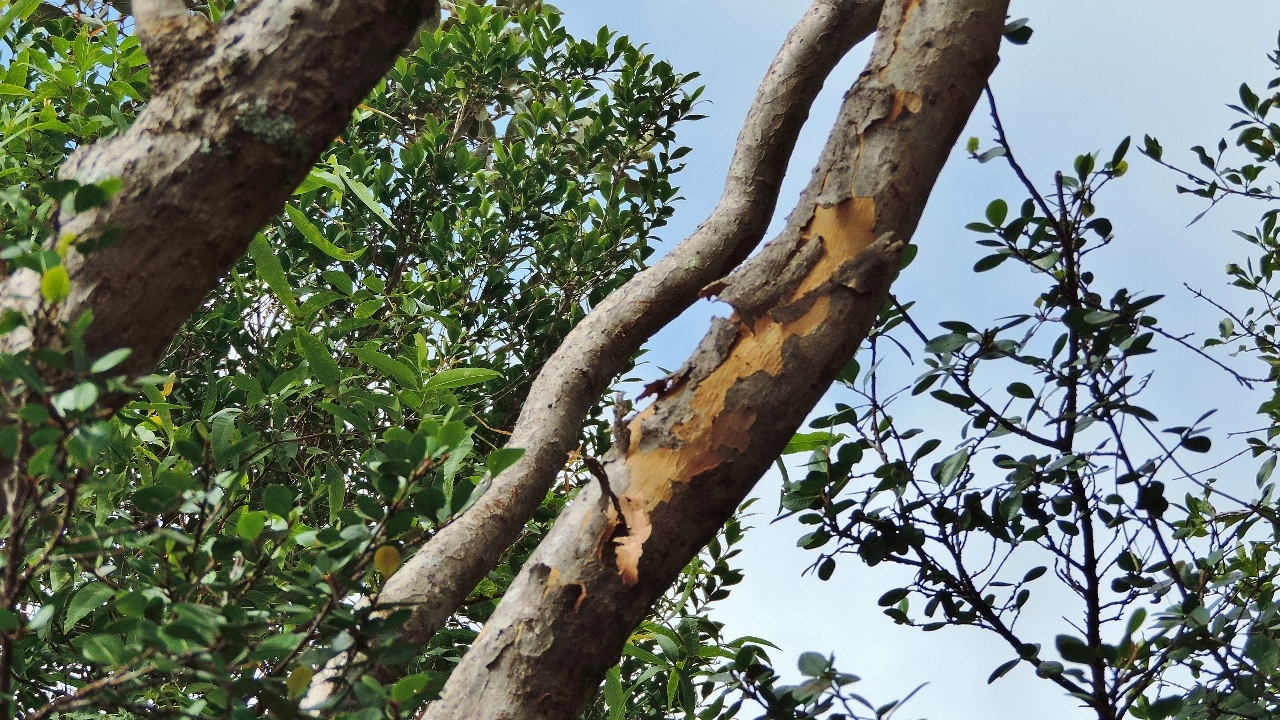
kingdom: Plantae
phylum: Tracheophyta
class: Magnoliopsida
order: Myrtales
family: Myrtaceae
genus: Heteropyxis
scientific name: Heteropyxis dehniae
